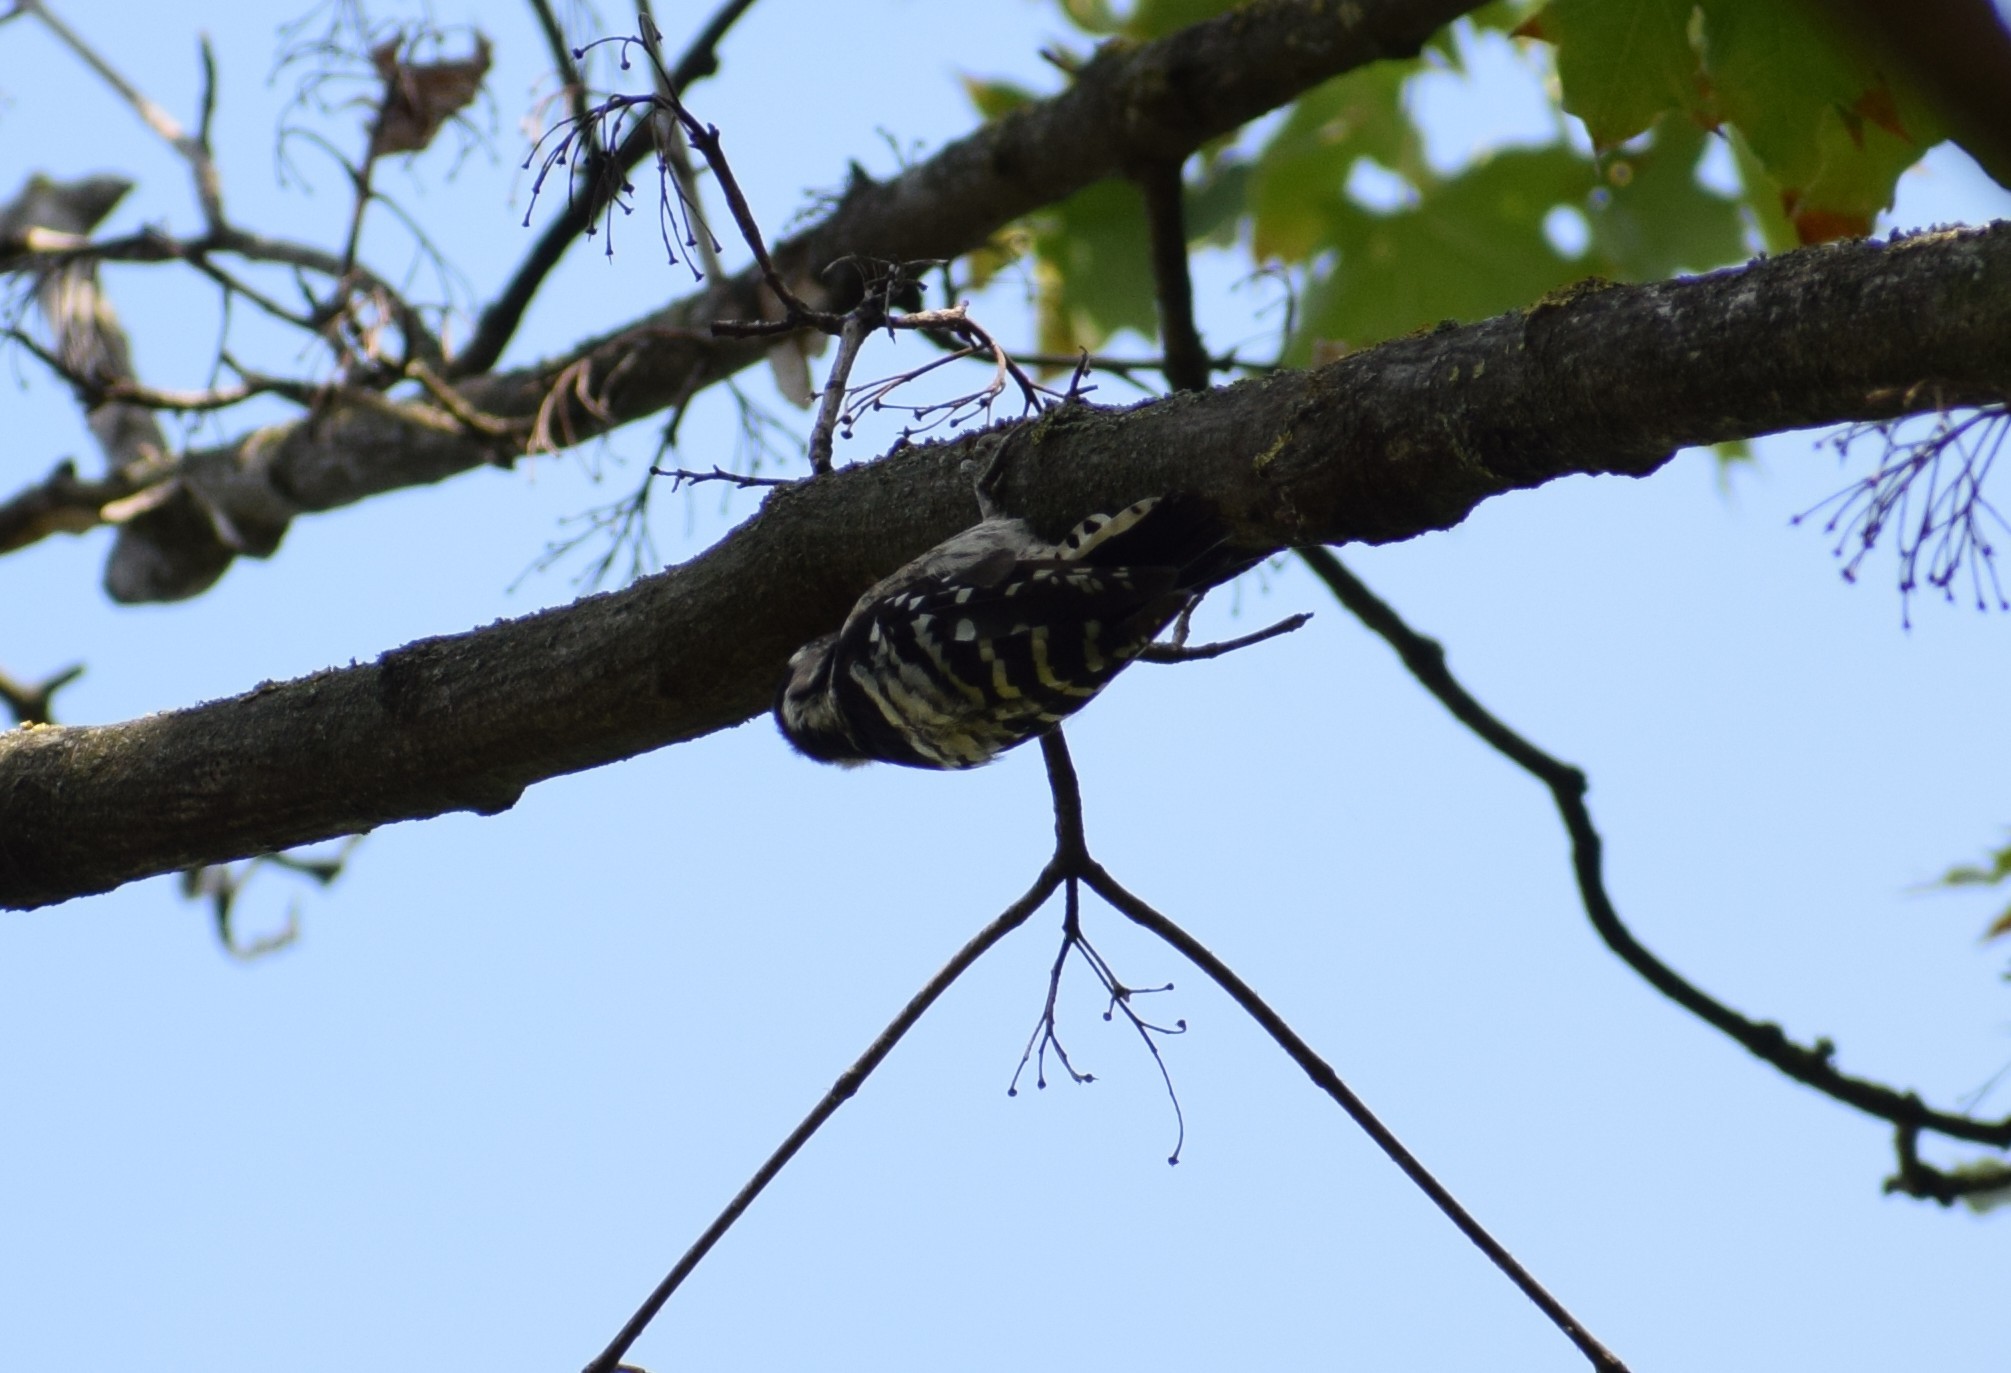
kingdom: Animalia
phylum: Chordata
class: Aves
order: Piciformes
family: Picidae
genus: Dryobates
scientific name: Dryobates minor
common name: Lesser spotted woodpecker
